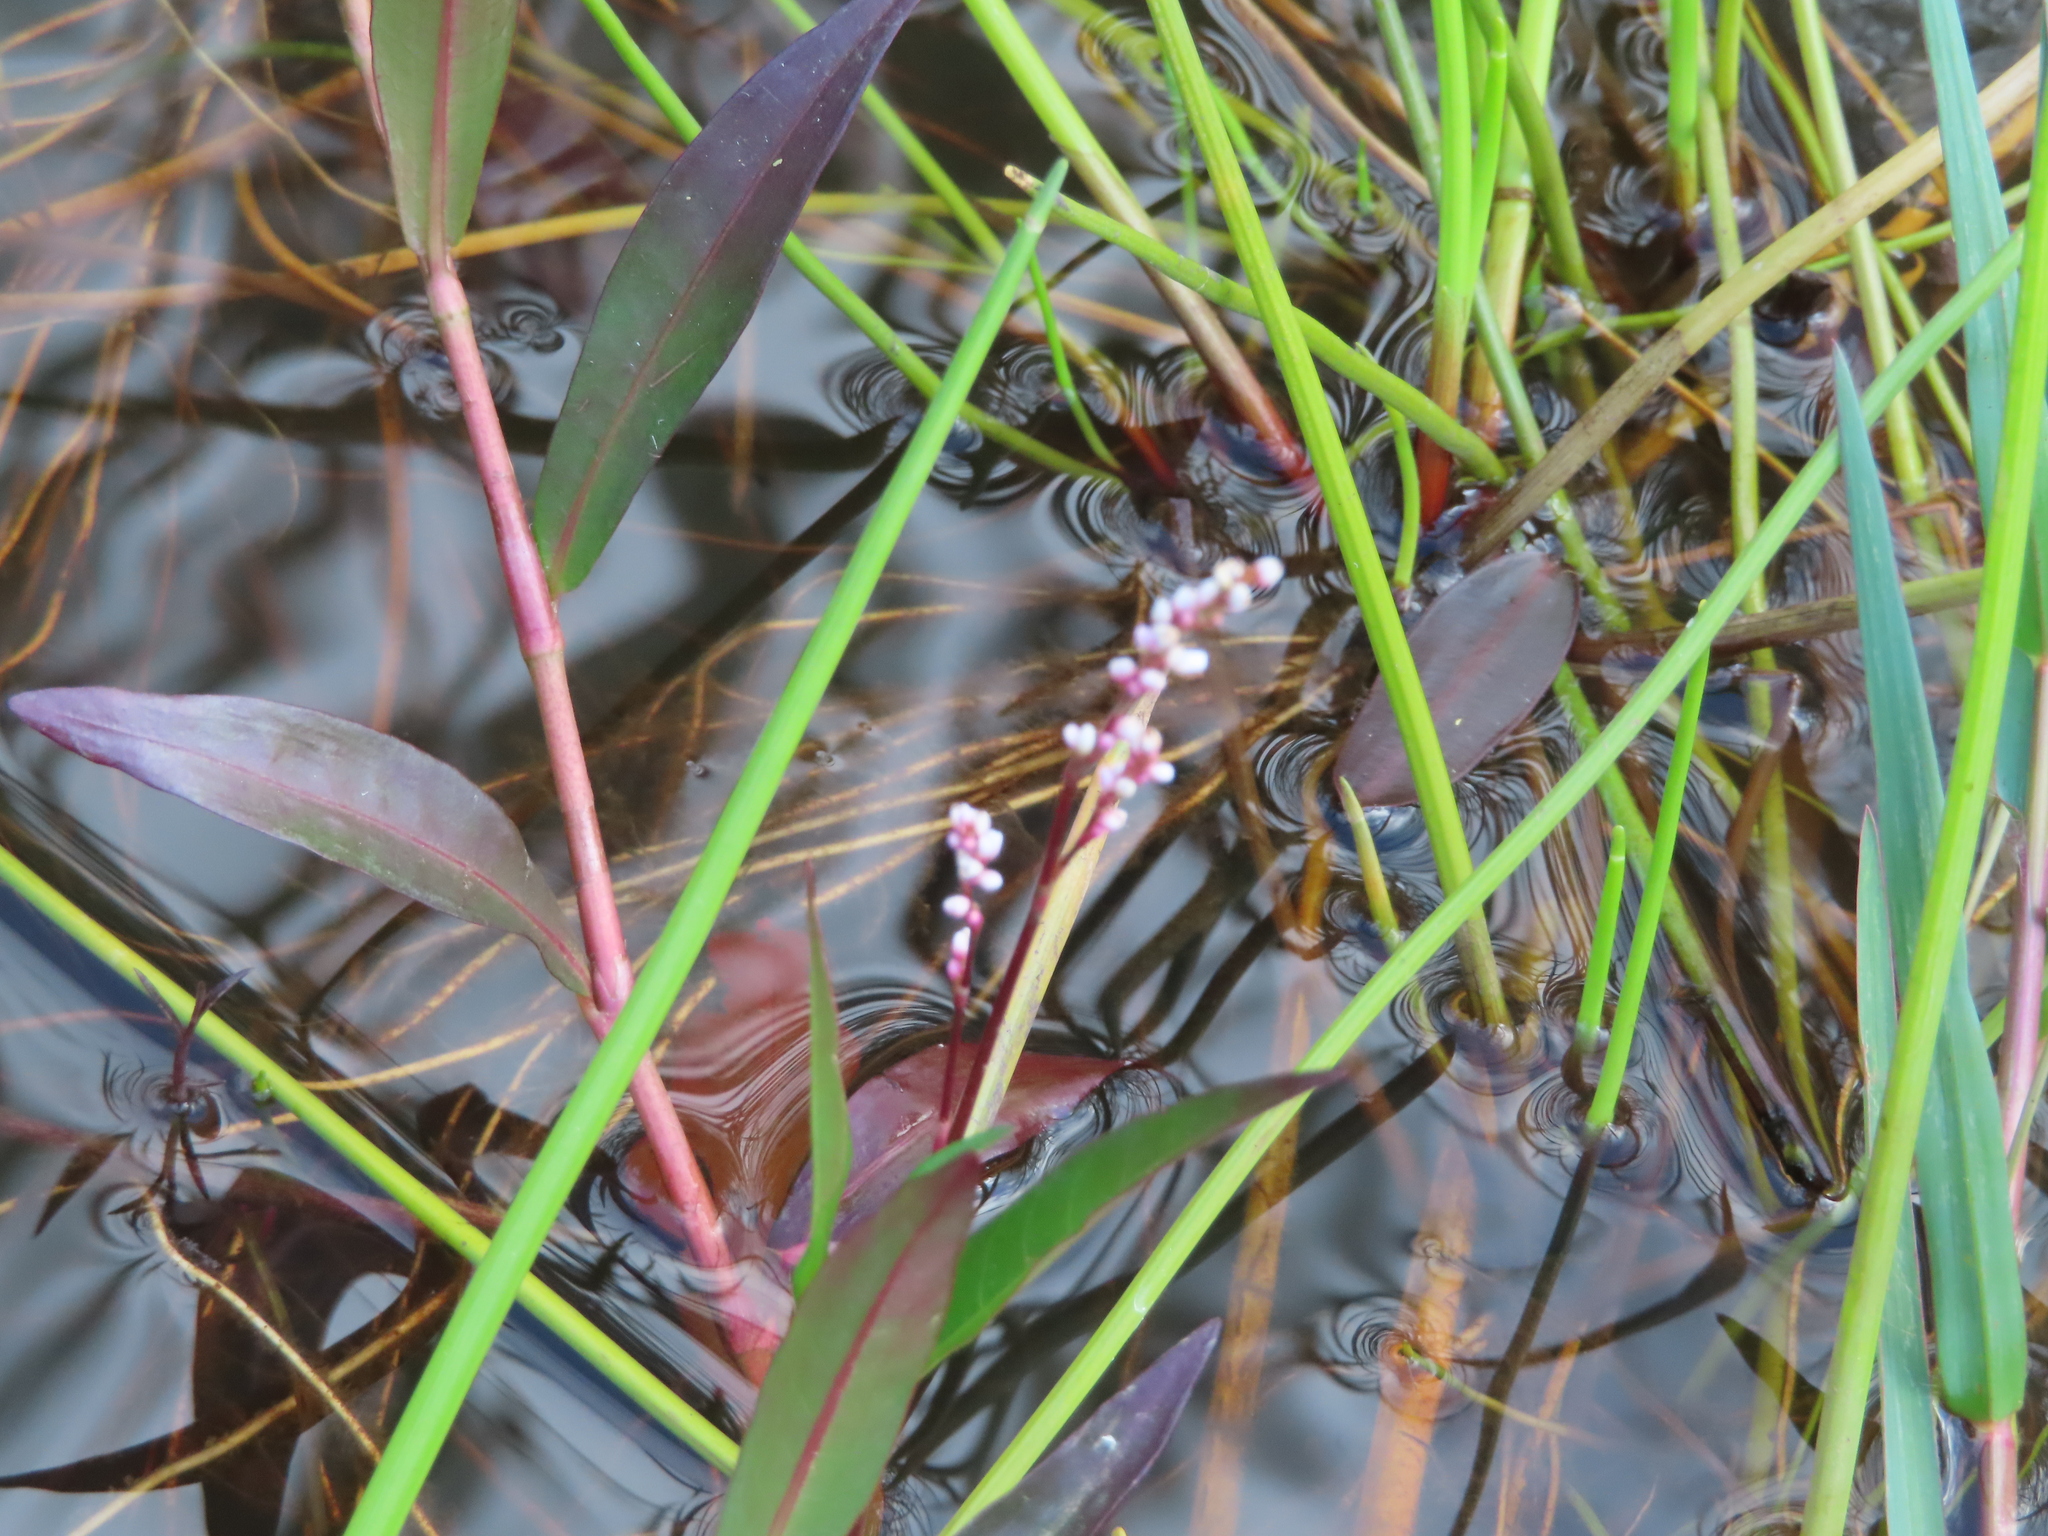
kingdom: Plantae
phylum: Tracheophyta
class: Magnoliopsida
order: Caryophyllales
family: Polygonaceae
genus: Persicaria
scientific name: Persicaria decipiens
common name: Willow-weed
